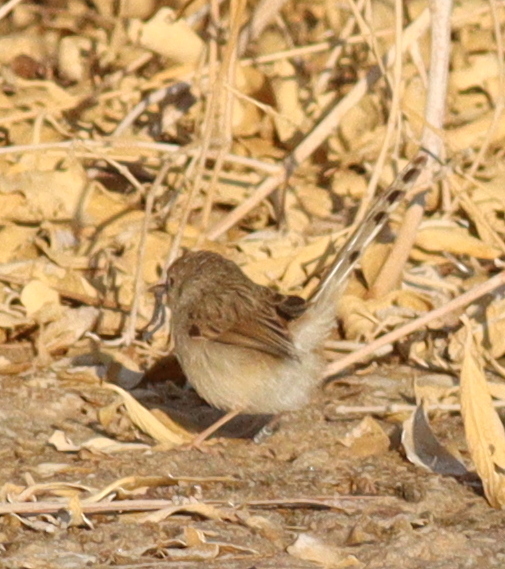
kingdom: Animalia
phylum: Chordata
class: Aves
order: Passeriformes
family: Cisticolidae
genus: Prinia
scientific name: Prinia gracilis
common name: Graceful prinia
